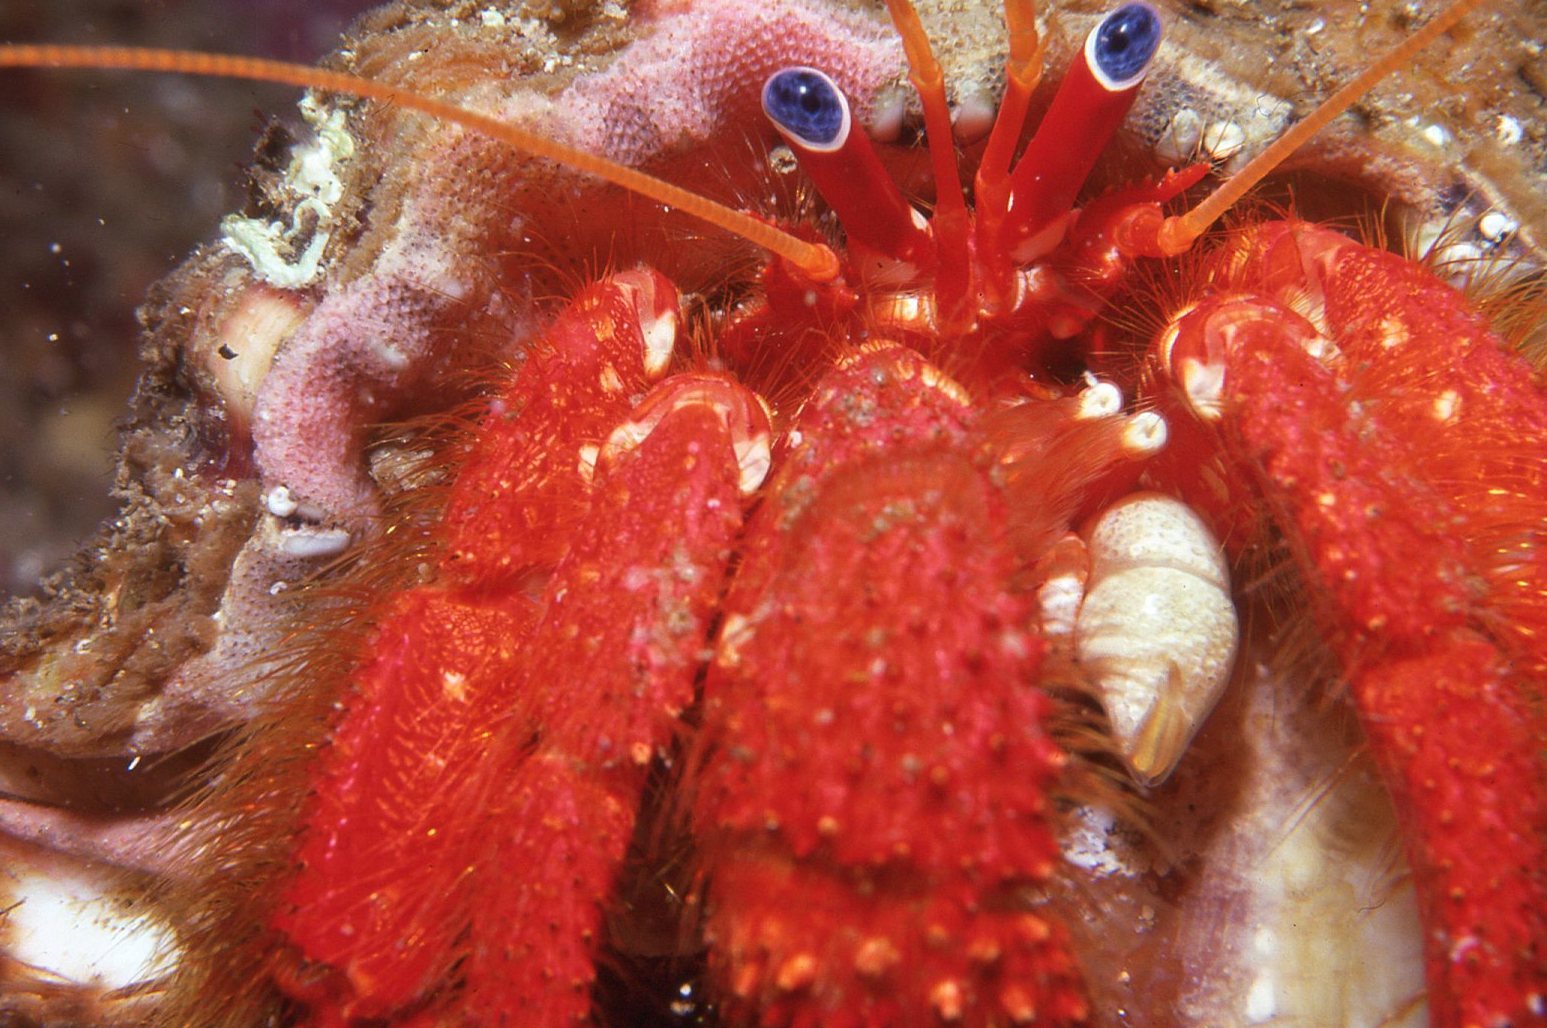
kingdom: Animalia
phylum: Arthropoda
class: Malacostraca
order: Decapoda
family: Diogenidae
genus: Strigopagurus
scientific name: Strigopagurus strigimanus
